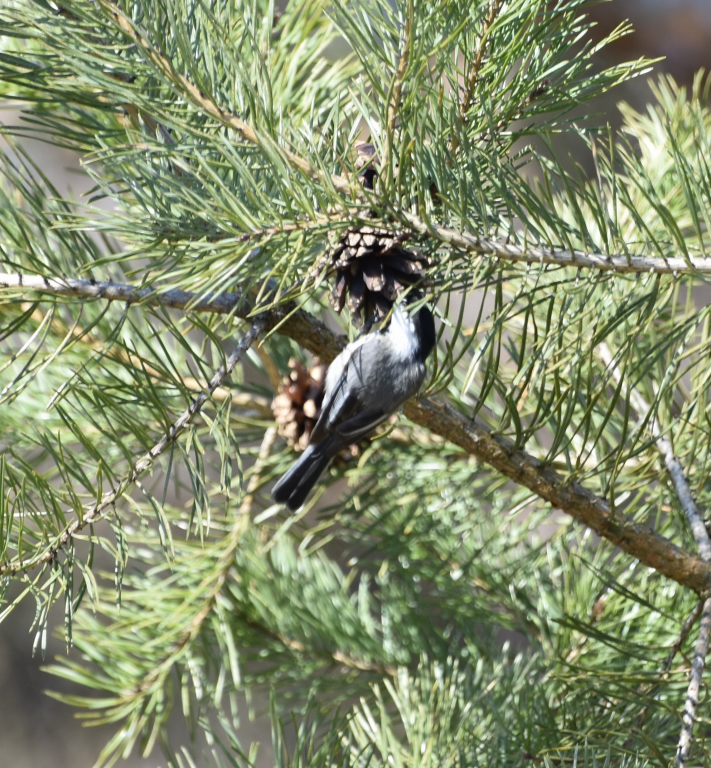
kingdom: Animalia
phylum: Chordata
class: Aves
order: Passeriformes
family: Paridae
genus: Poecile
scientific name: Poecile atricapillus
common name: Black-capped chickadee
